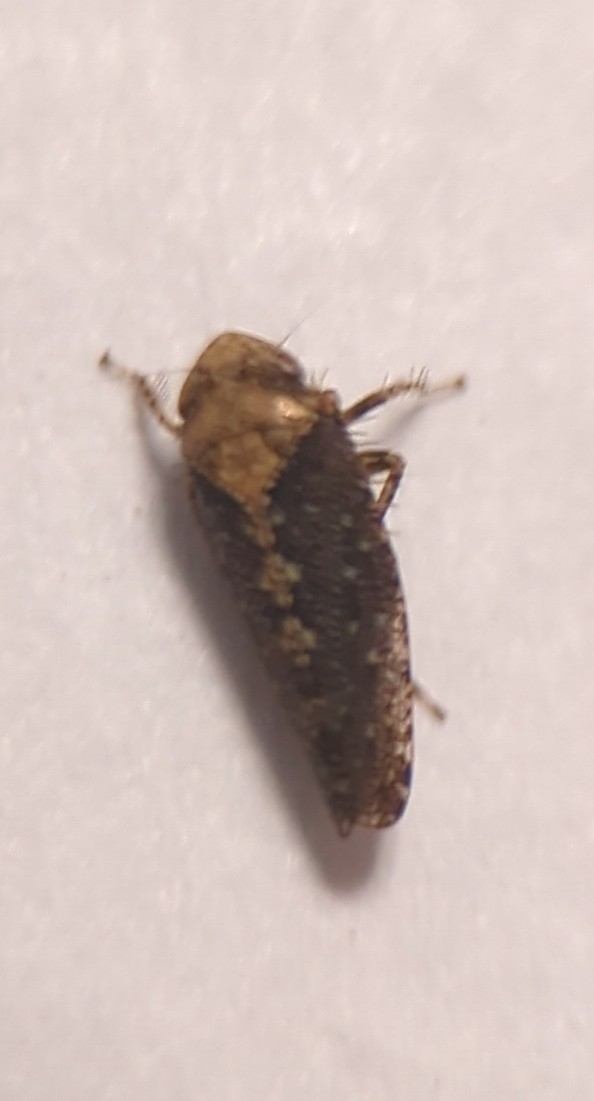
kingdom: Animalia
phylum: Arthropoda
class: Insecta
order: Hemiptera
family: Cicadellidae
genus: Excultanus
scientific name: Excultanus excultus
